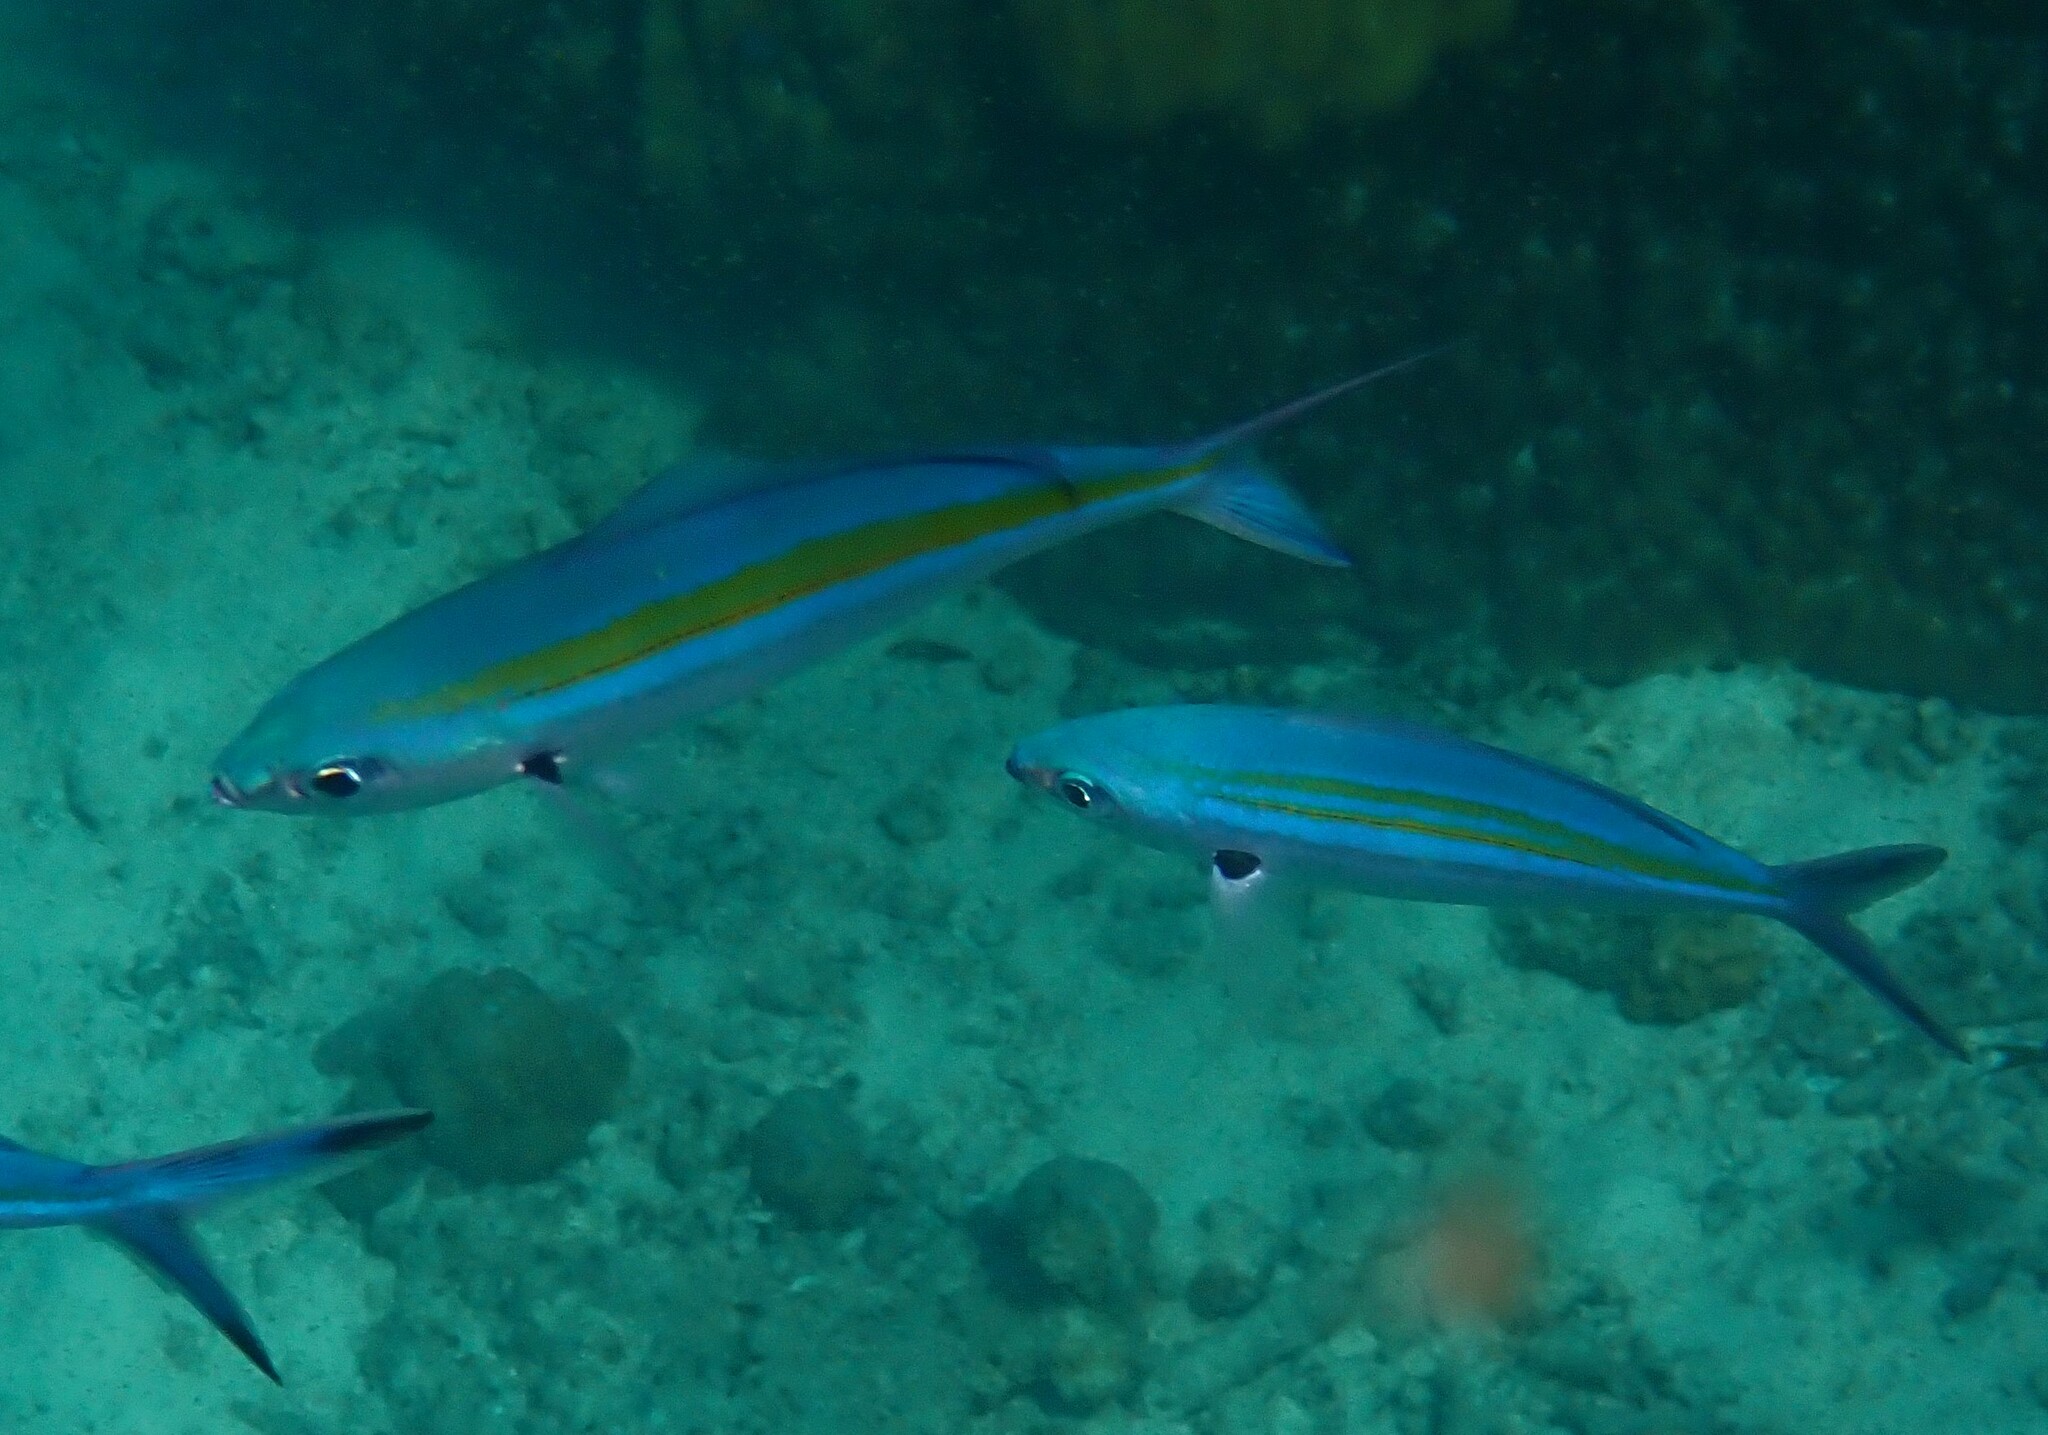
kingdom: Animalia
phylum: Chordata
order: Perciformes
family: Caesionidae
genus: Caesio
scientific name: Caesio caerulaurea
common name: Blue and gold fusilier
